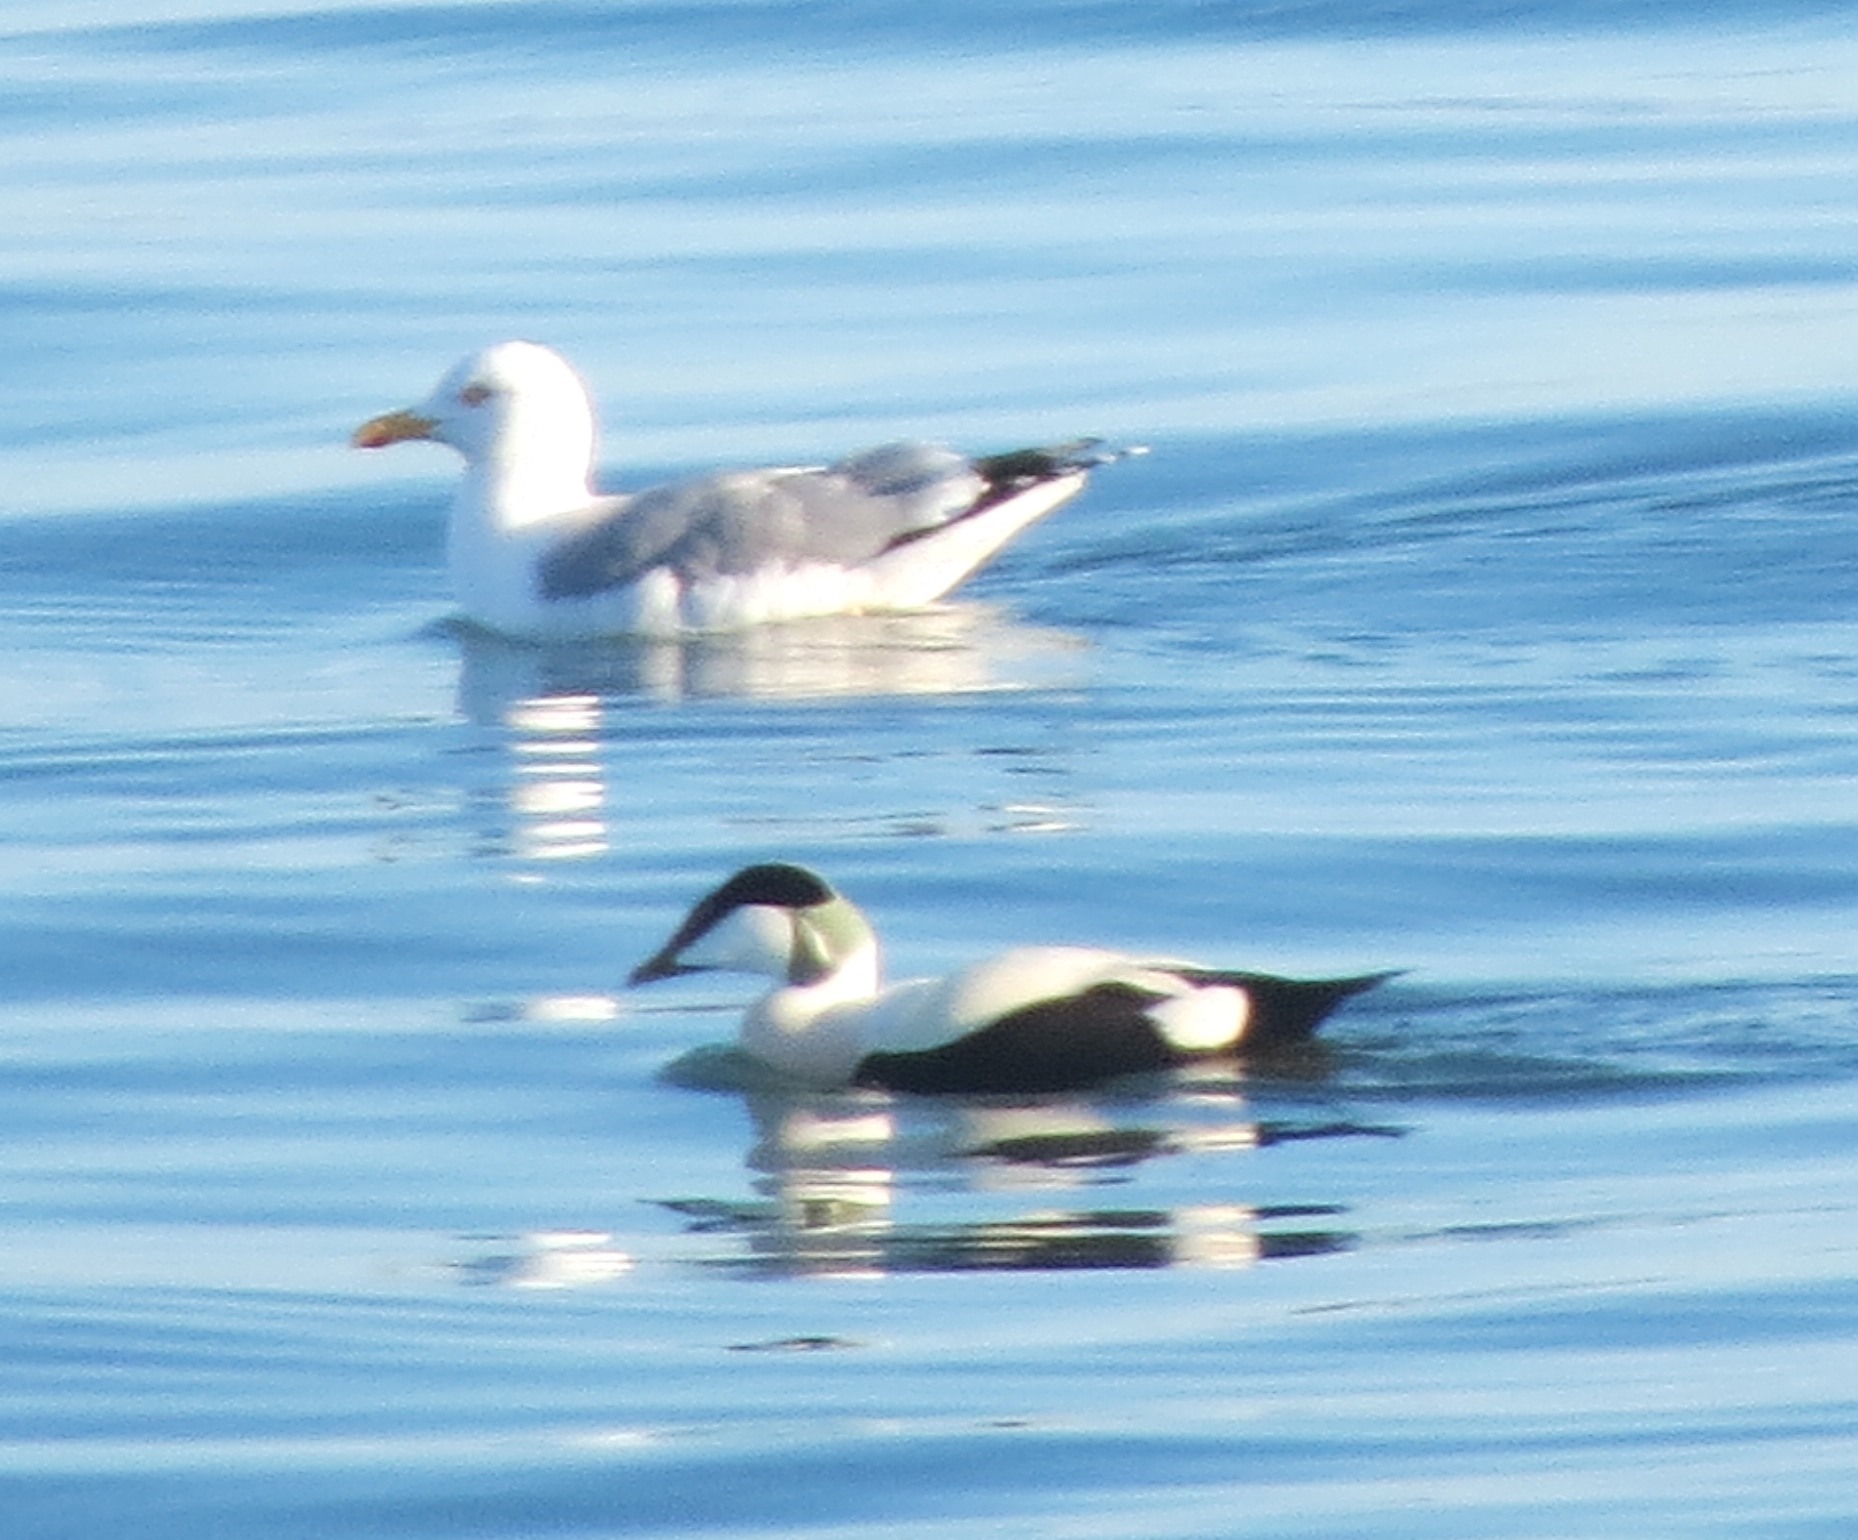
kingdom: Animalia
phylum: Chordata
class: Aves
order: Anseriformes
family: Anatidae
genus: Somateria
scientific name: Somateria mollissima
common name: Common eider
